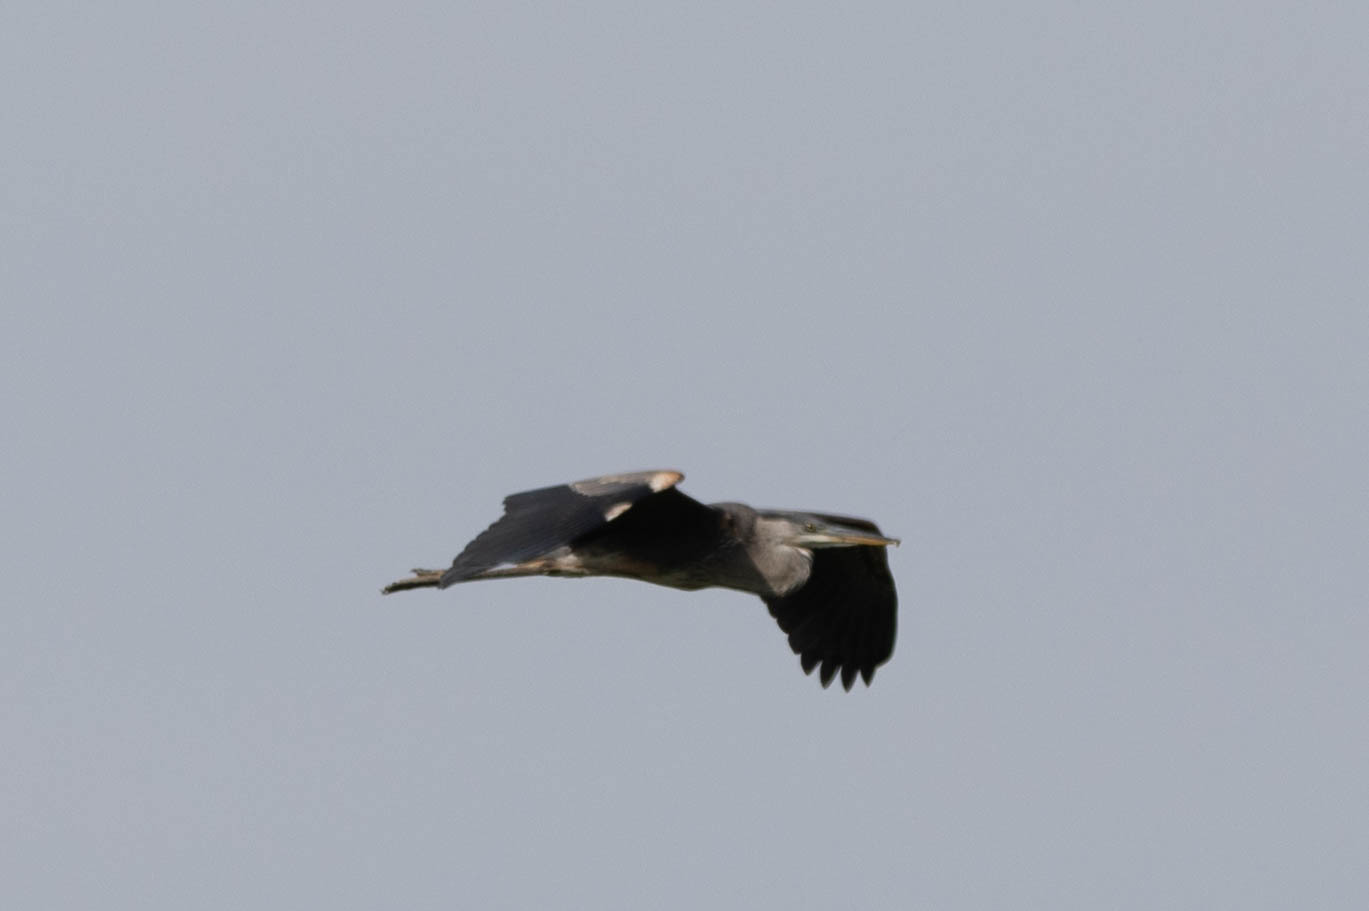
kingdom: Animalia
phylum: Chordata
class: Aves
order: Pelecaniformes
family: Ardeidae
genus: Ardea
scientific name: Ardea herodias
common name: Great blue heron
